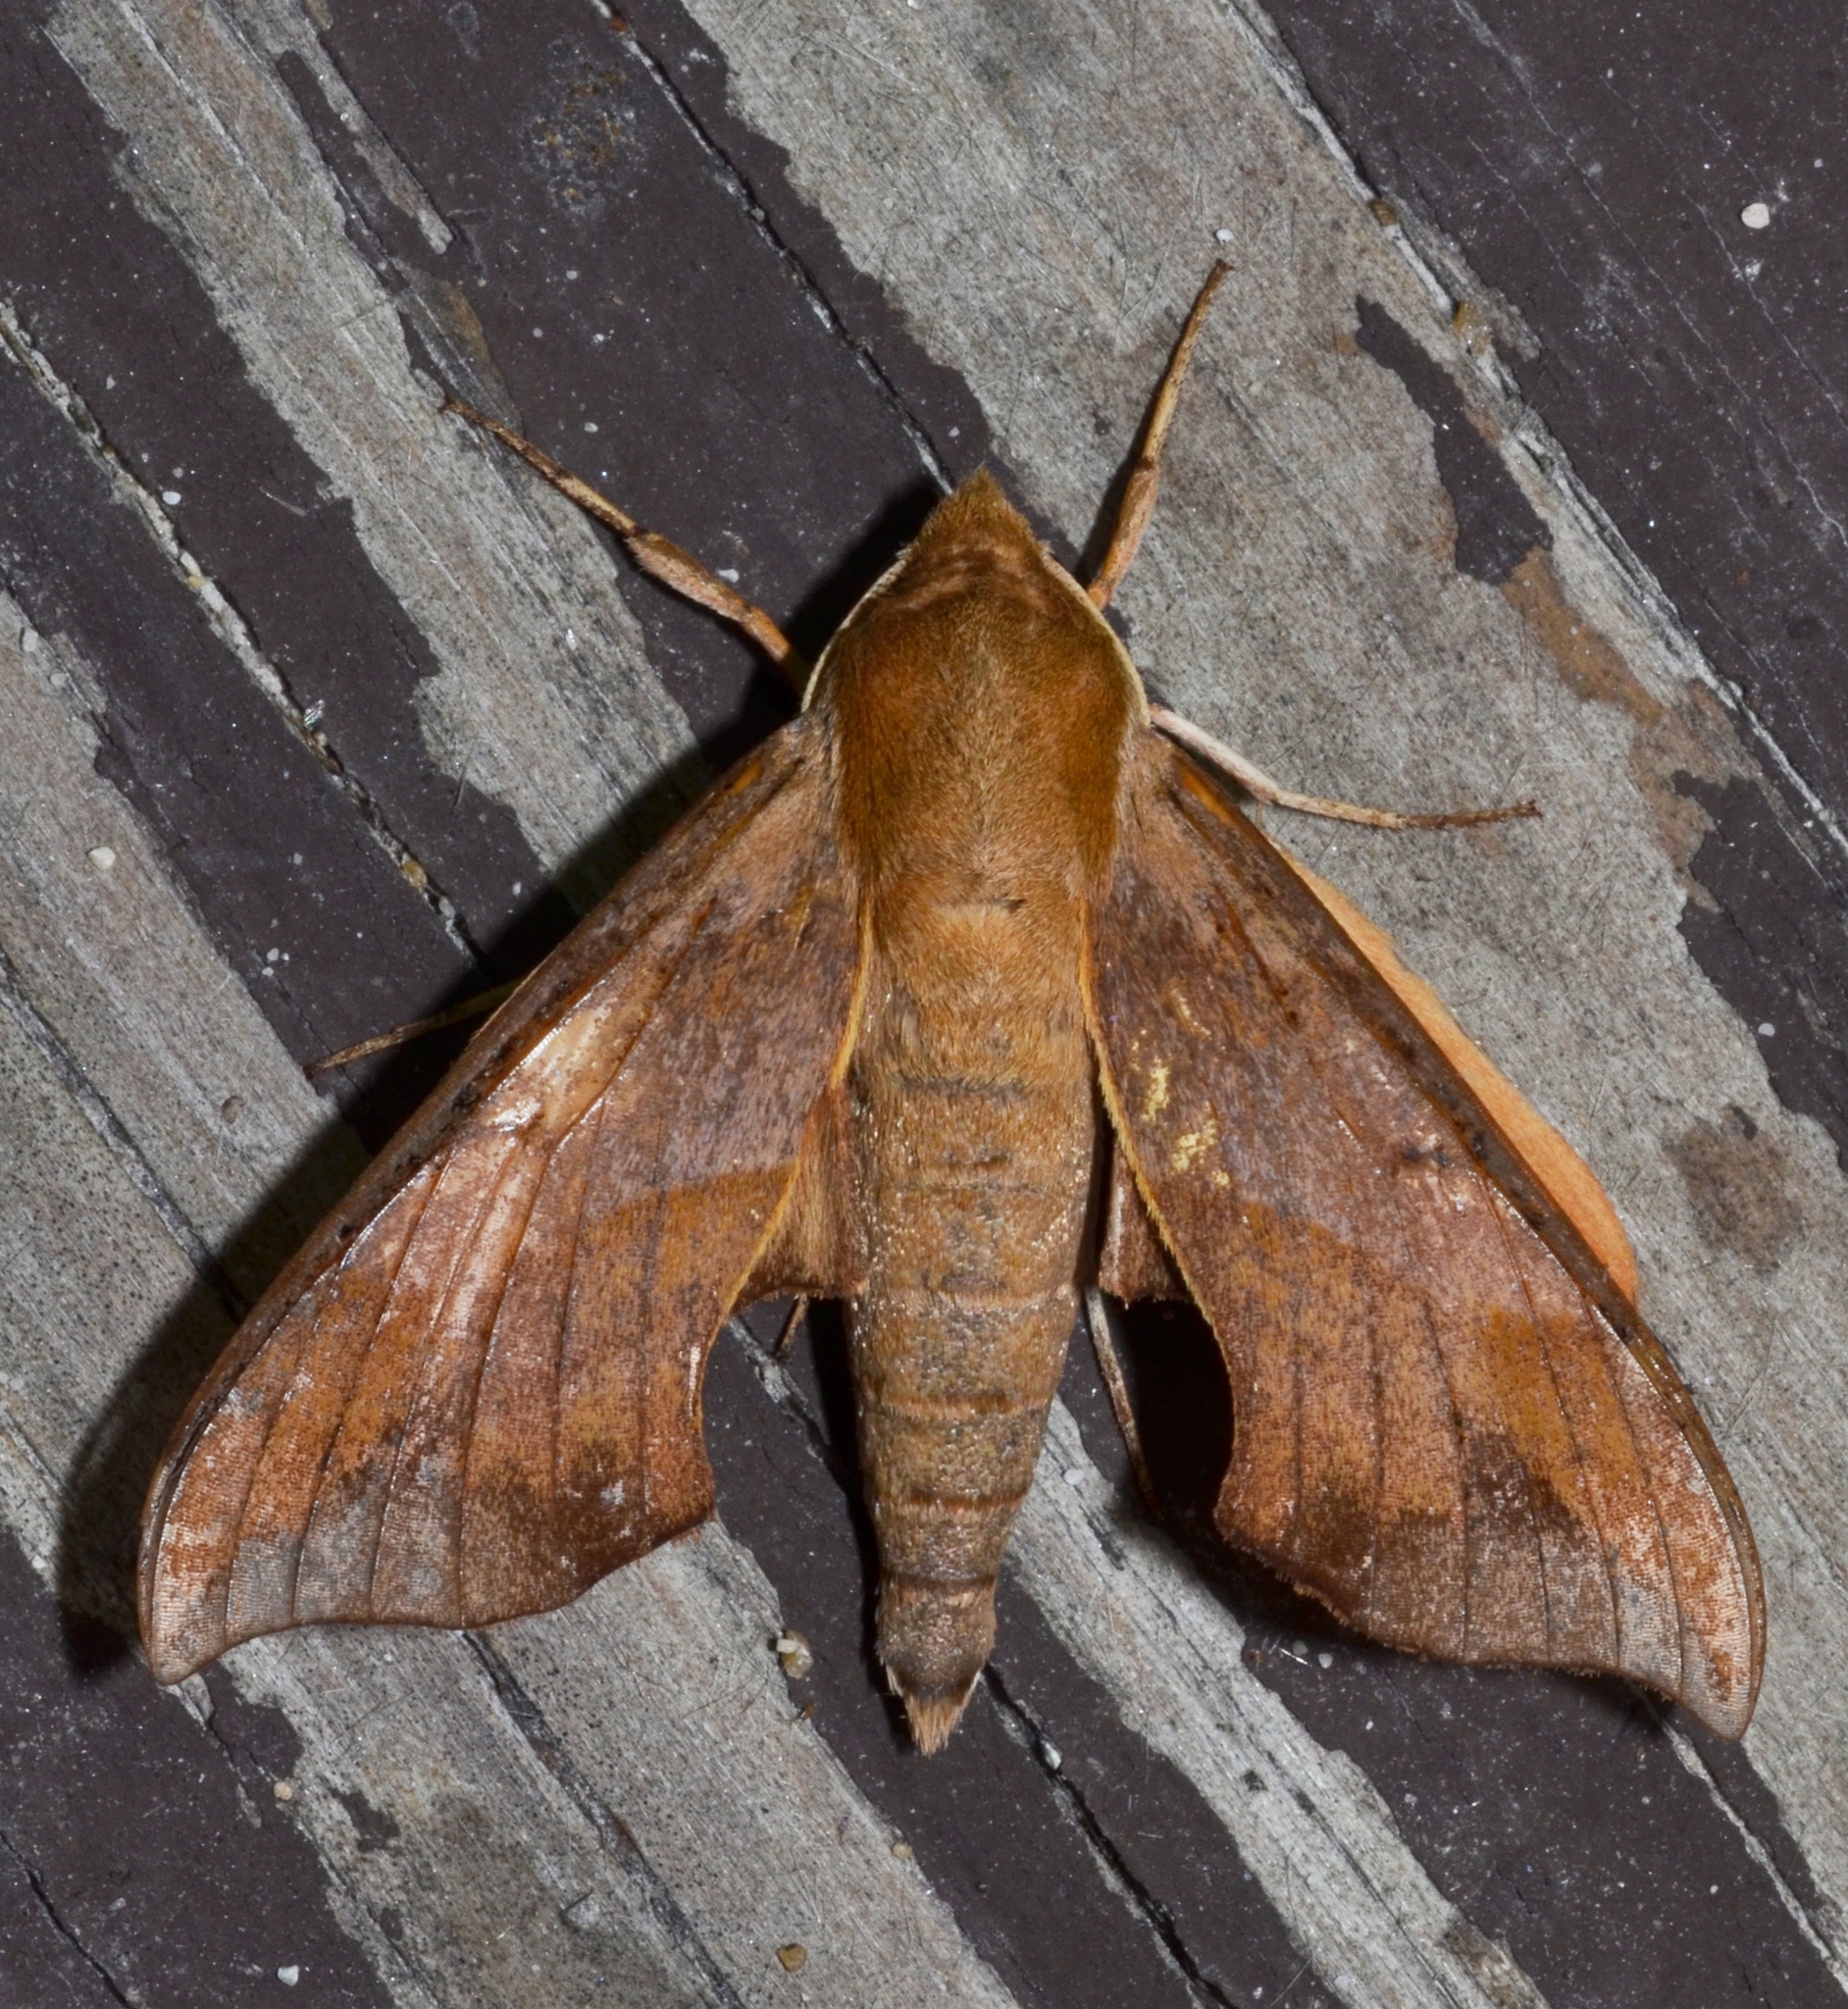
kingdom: Animalia
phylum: Arthropoda
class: Insecta
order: Lepidoptera
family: Sphingidae
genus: Darapsa
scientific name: Darapsa myron
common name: Hog sphinx
